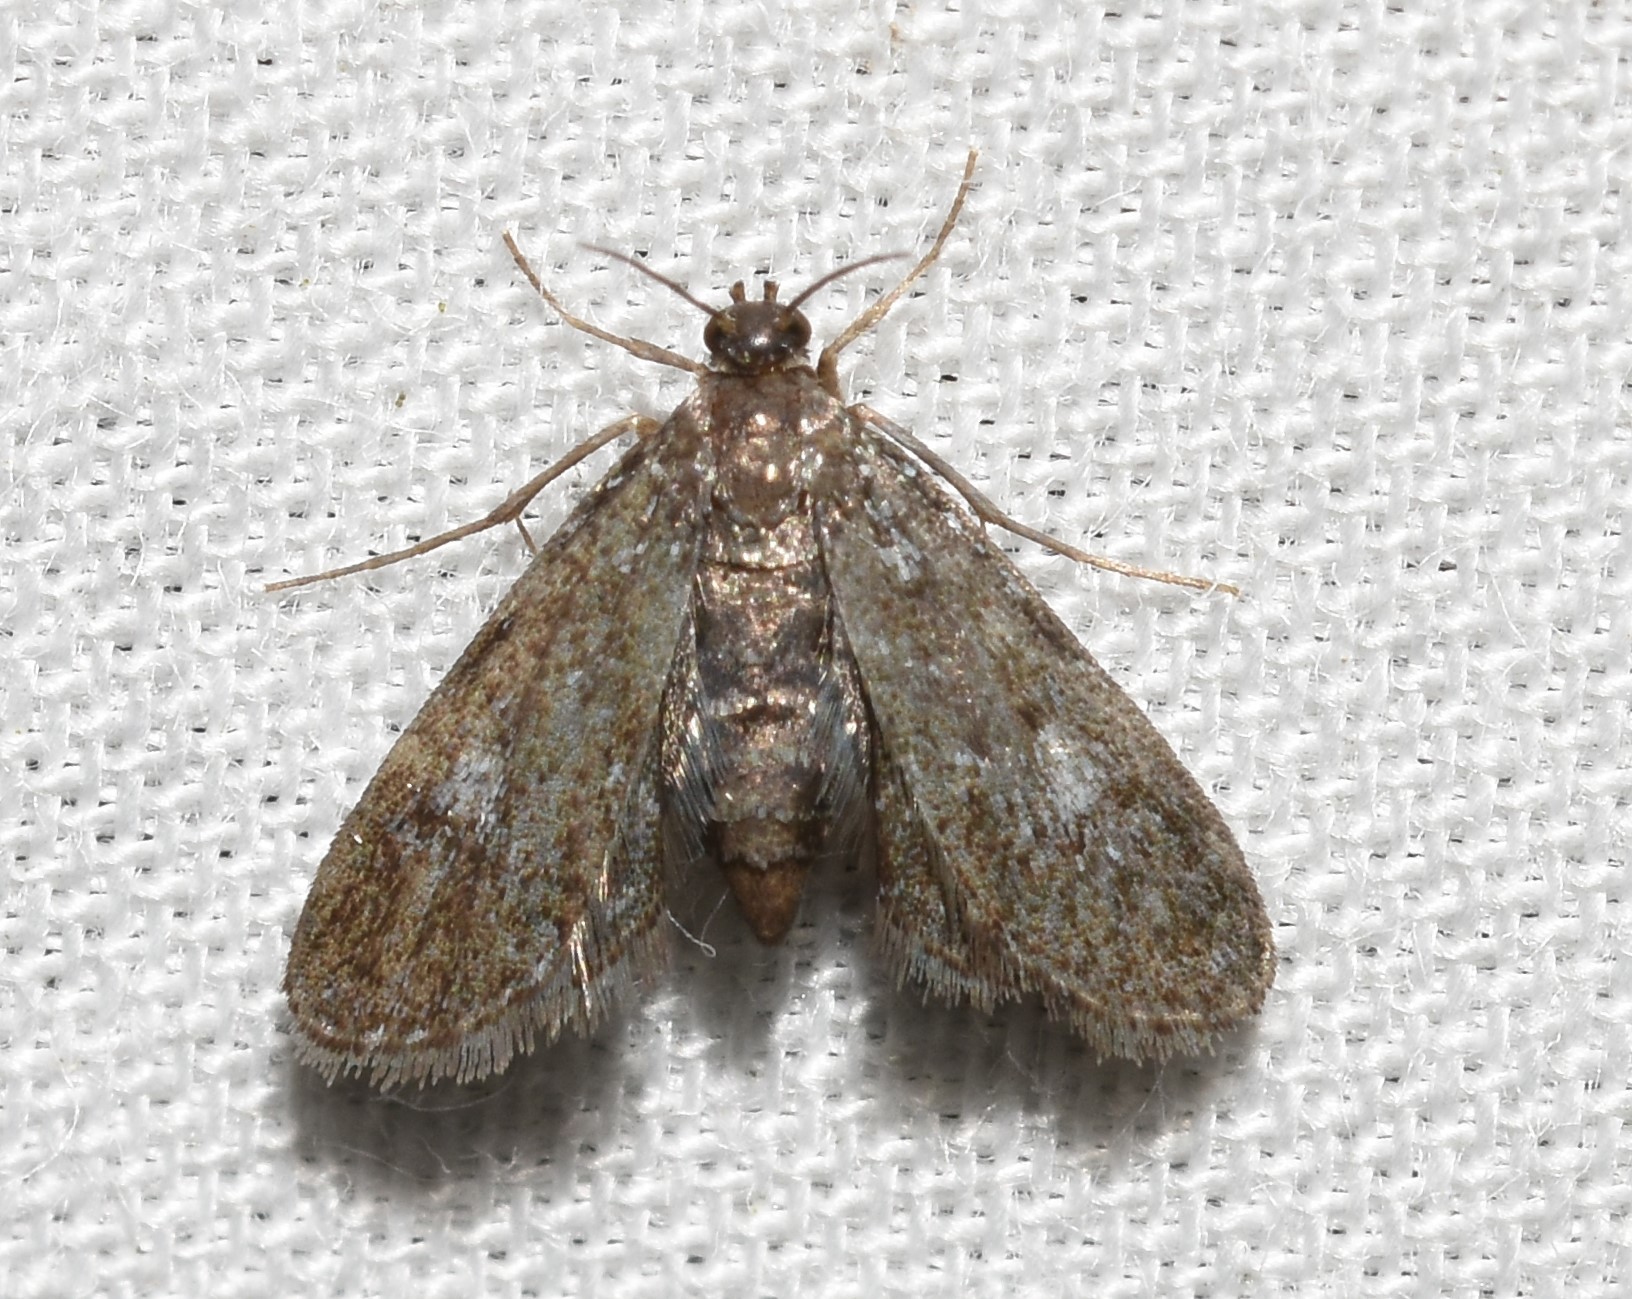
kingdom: Animalia
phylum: Arthropoda
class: Insecta
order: Lepidoptera
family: Crambidae
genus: Elophila
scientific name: Elophila tinealis
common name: Black duckweed moth
